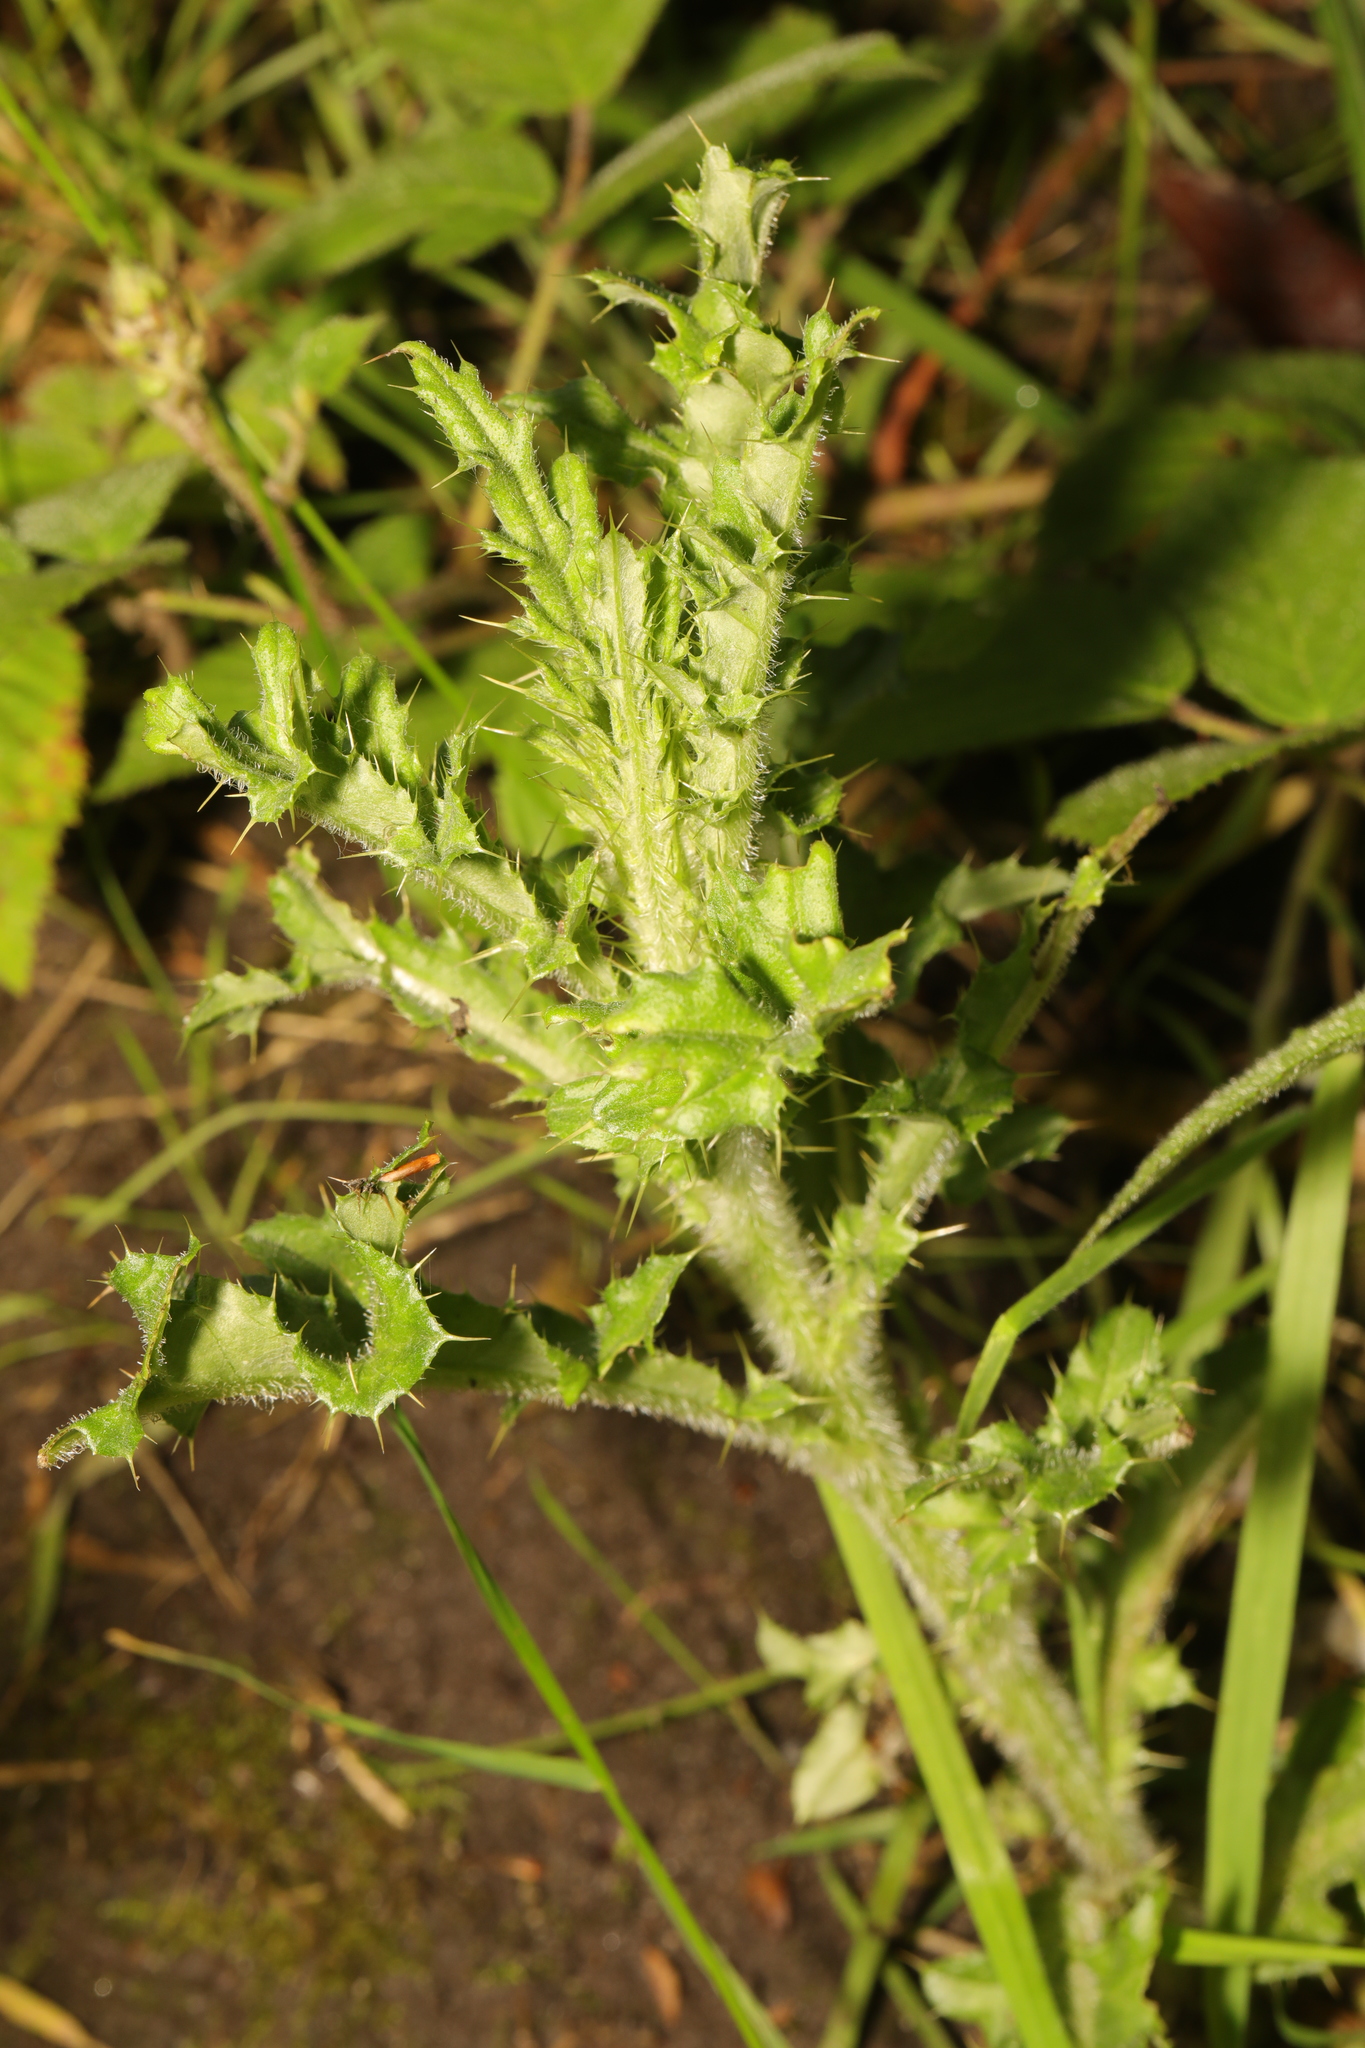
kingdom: Plantae
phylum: Tracheophyta
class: Magnoliopsida
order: Asterales
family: Asteraceae
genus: Cirsium
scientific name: Cirsium arvense
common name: Creeping thistle
